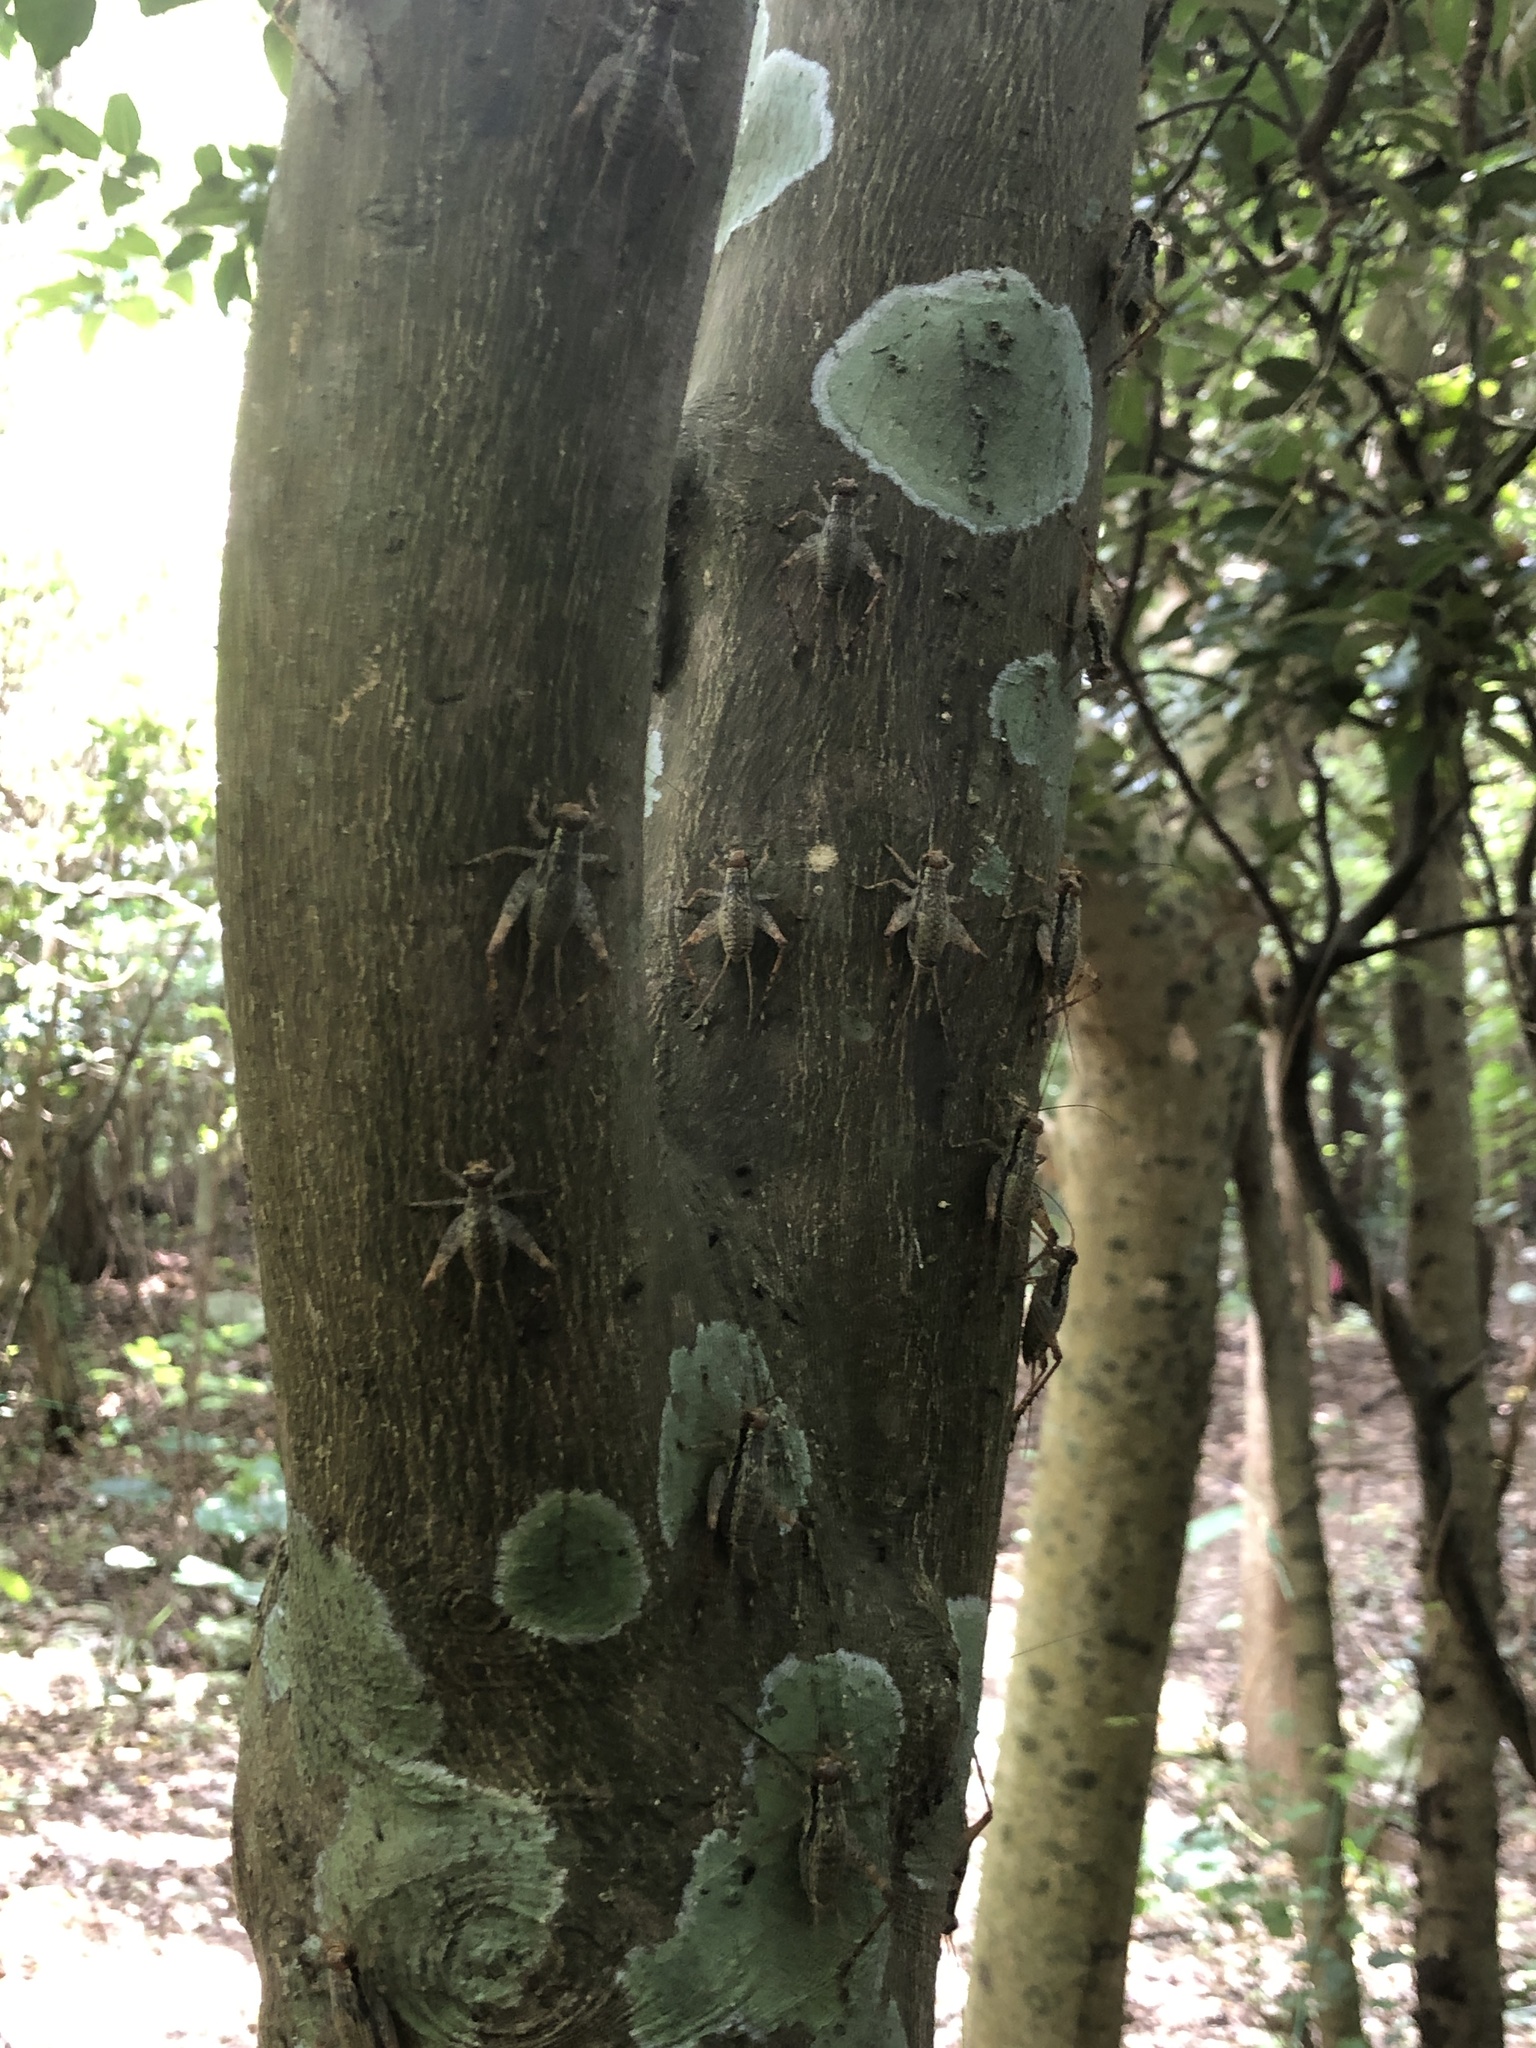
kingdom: Animalia
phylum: Arthropoda
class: Insecta
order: Orthoptera
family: Gryllidae
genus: Cardiodactylus
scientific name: Cardiodactylus guttulus
